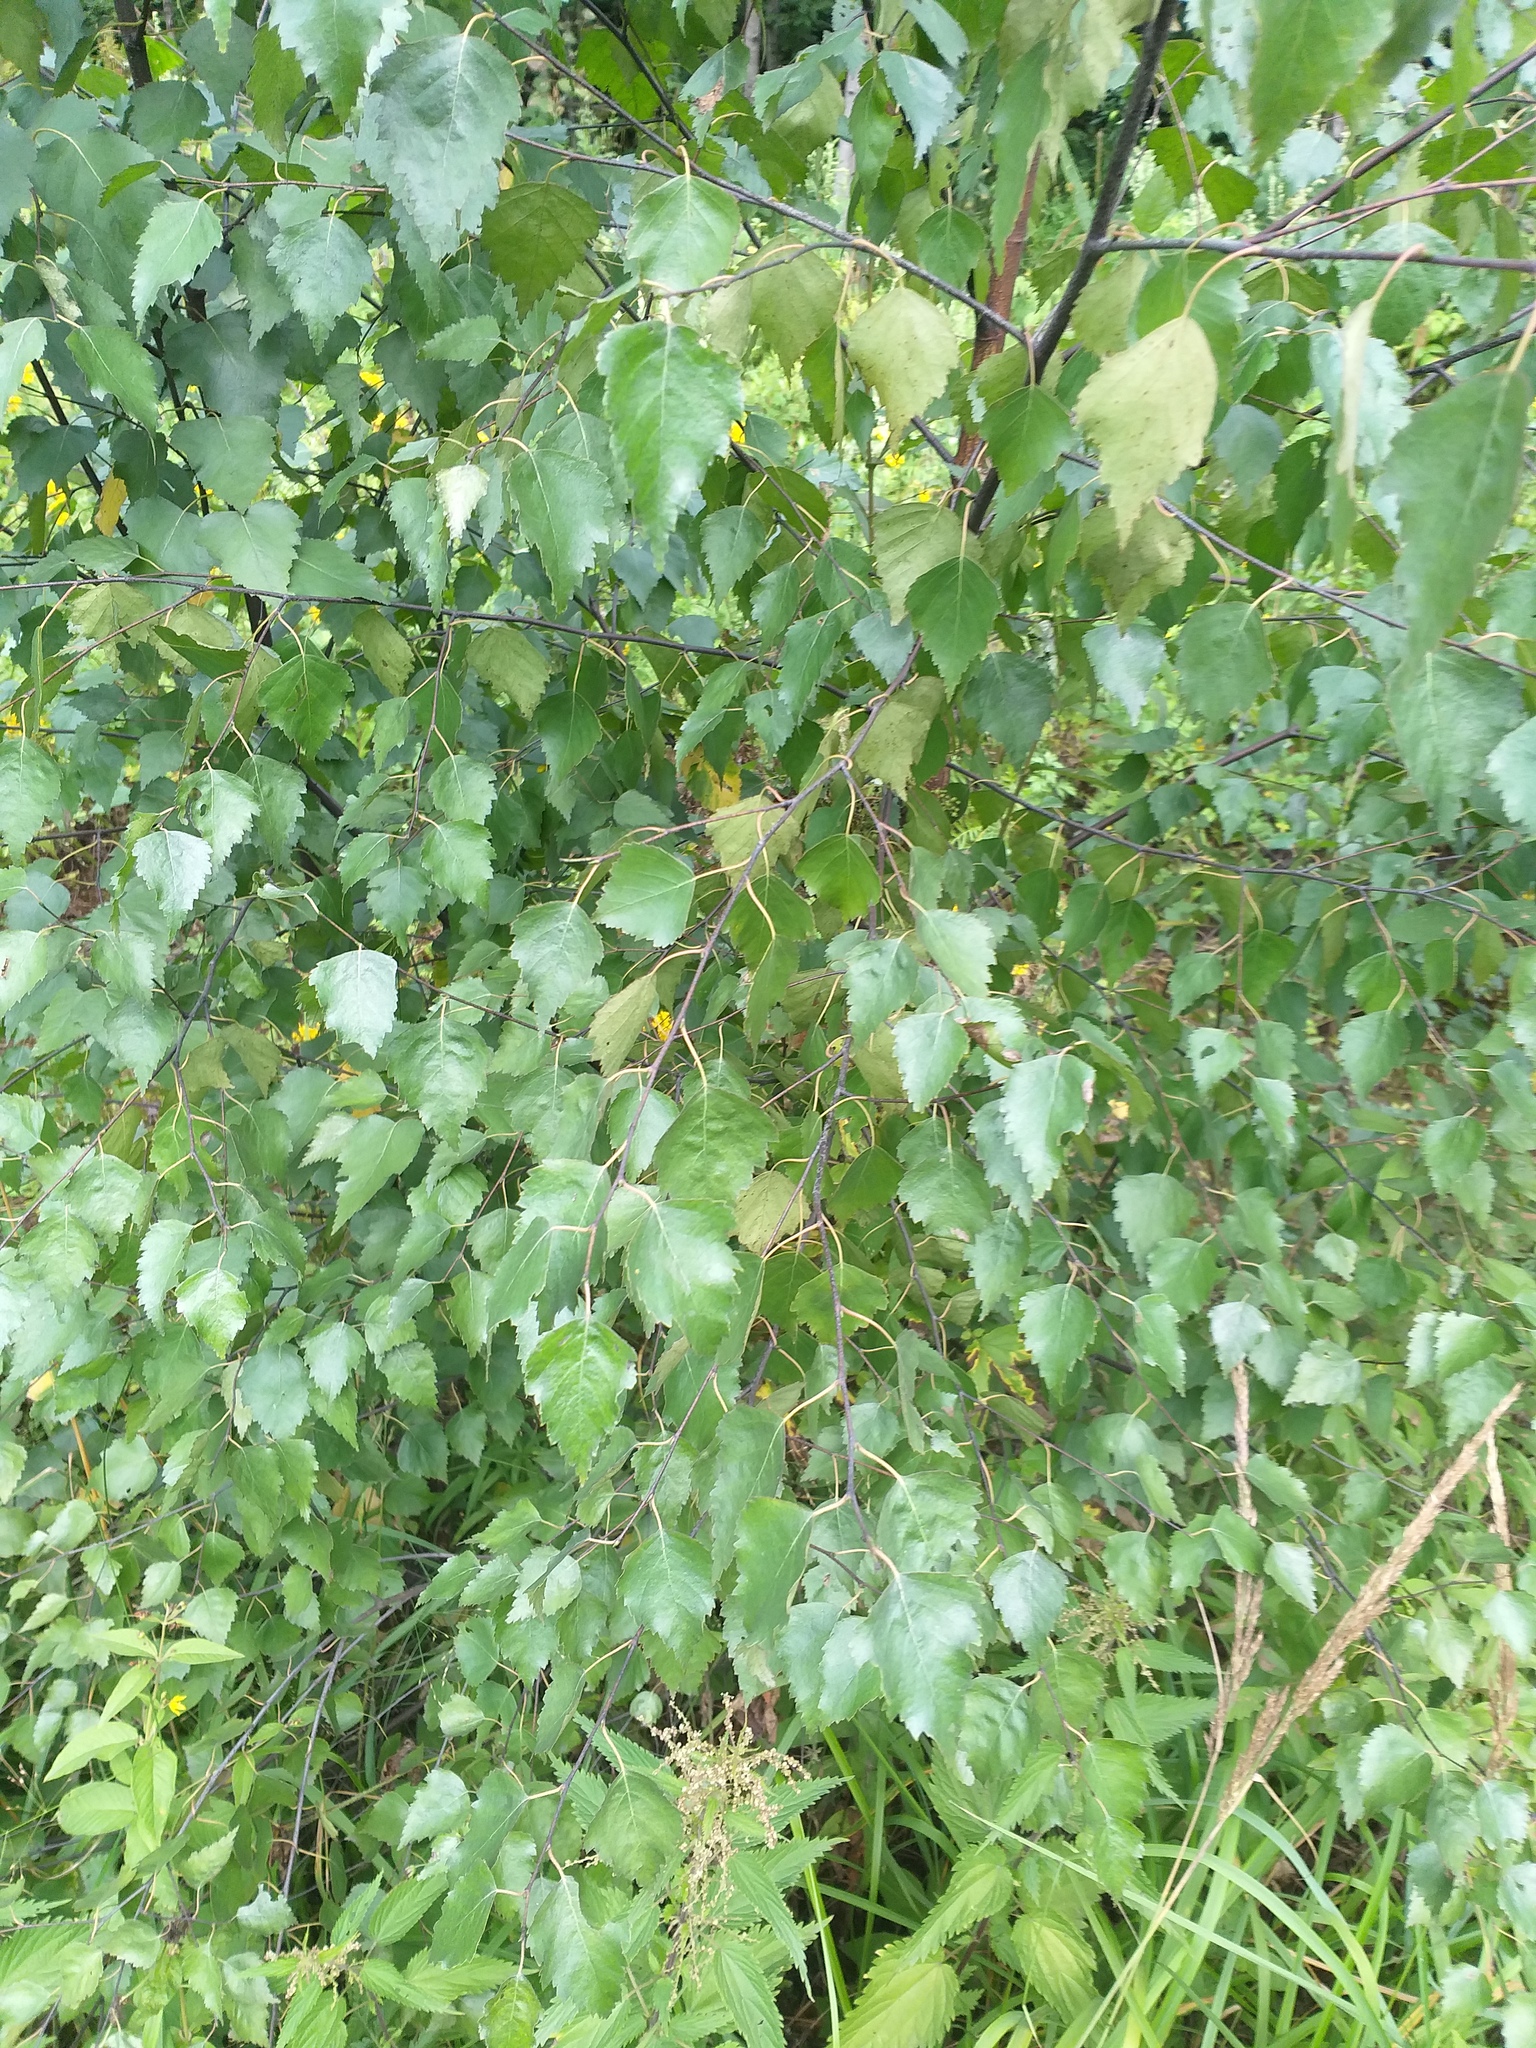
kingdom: Plantae
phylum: Tracheophyta
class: Magnoliopsida
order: Fagales
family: Betulaceae
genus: Betula
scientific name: Betula pendula
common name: Silver birch
